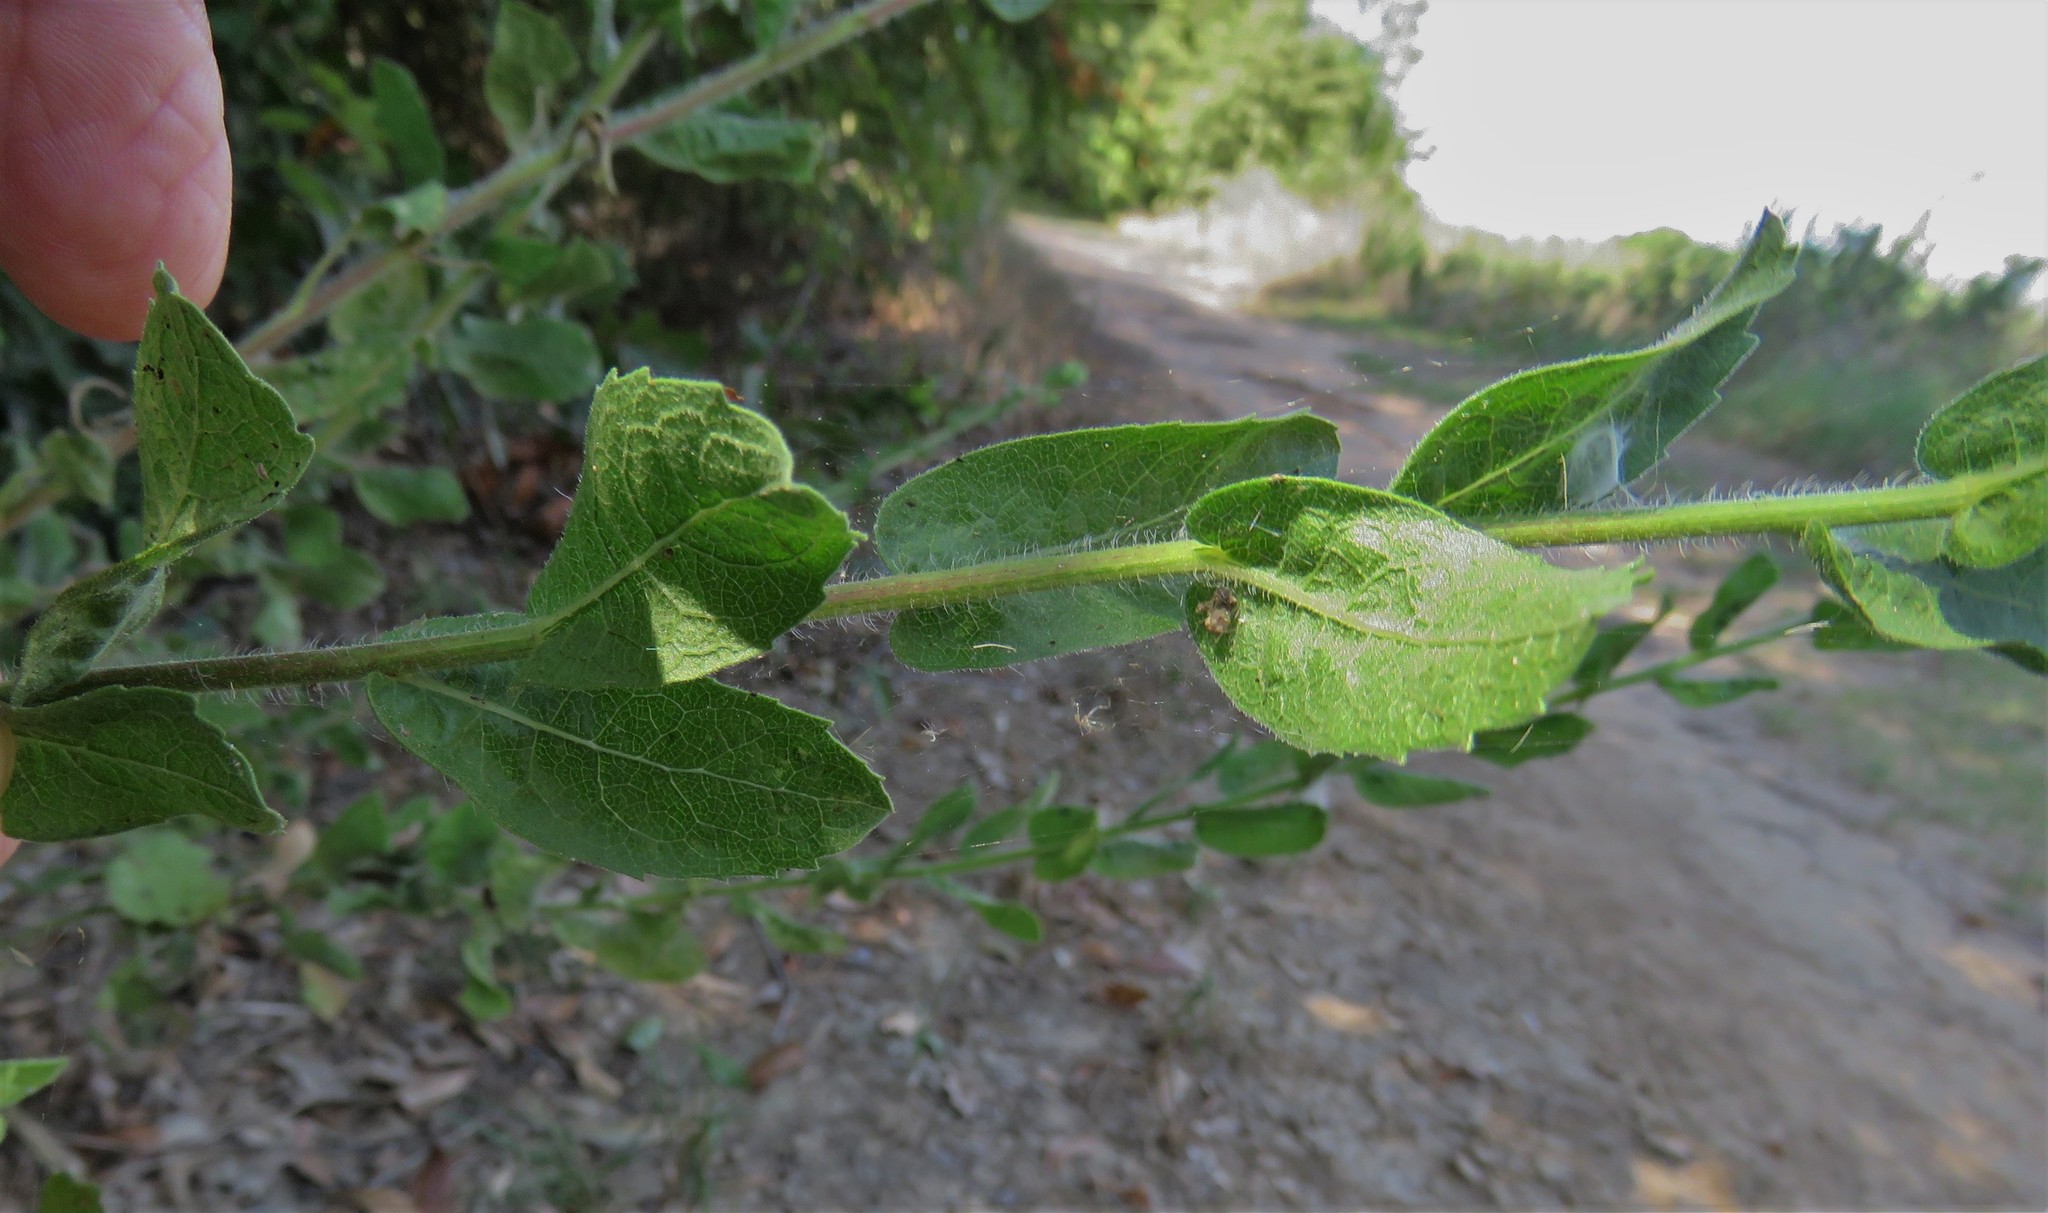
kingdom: Plantae
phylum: Tracheophyta
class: Magnoliopsida
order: Asterales
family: Asteraceae
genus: Heterotheca
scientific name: Heterotheca subaxillaris
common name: Camphorweed
